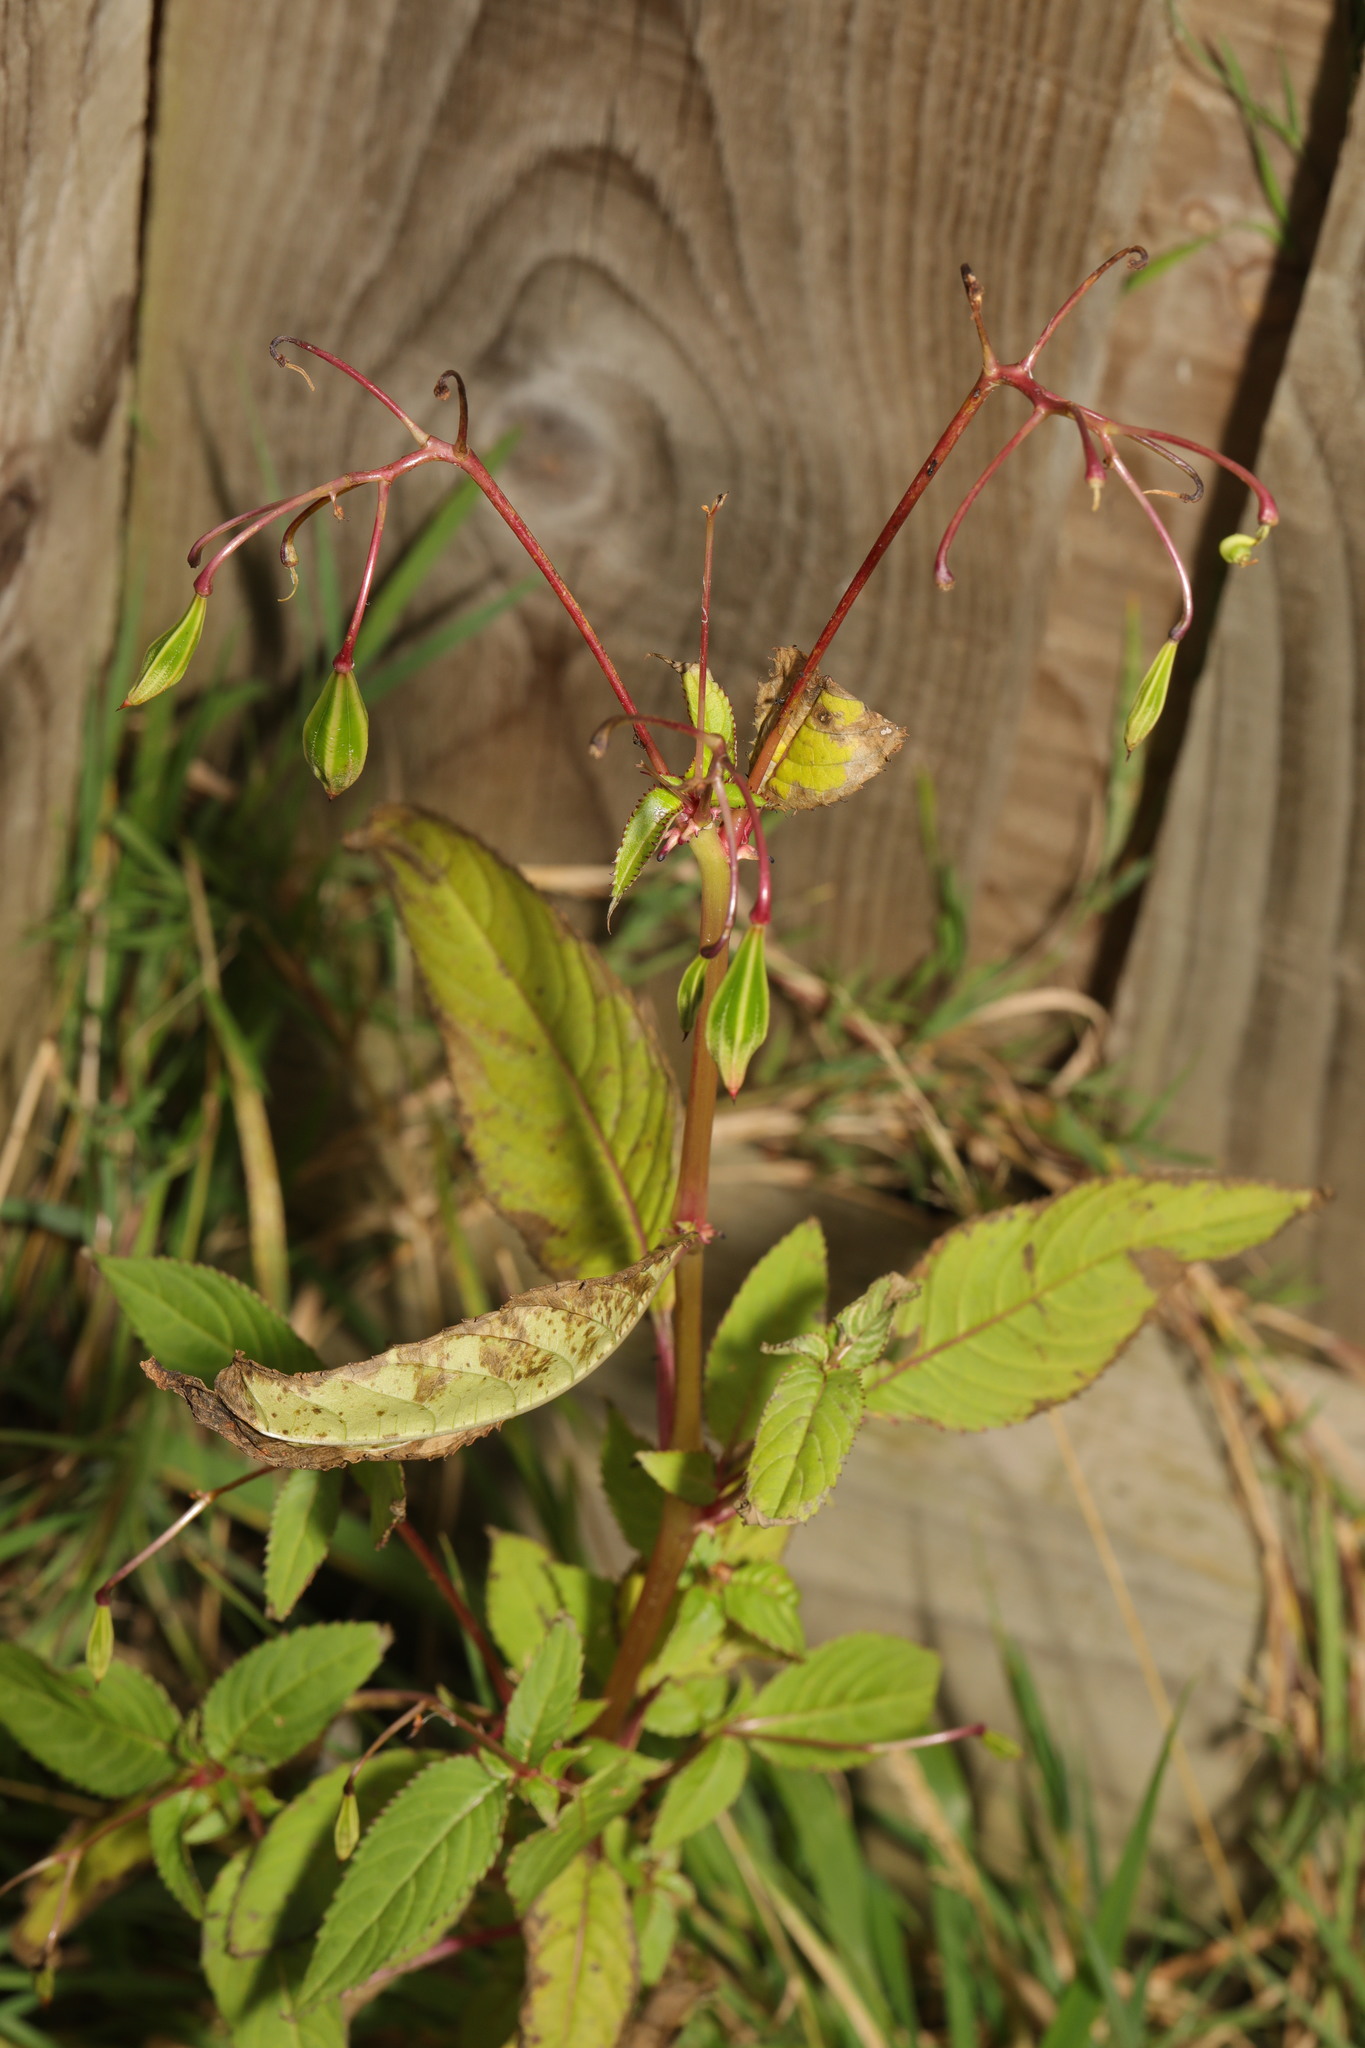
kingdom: Plantae
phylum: Tracheophyta
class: Magnoliopsida
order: Ericales
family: Balsaminaceae
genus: Impatiens
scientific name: Impatiens glandulifera
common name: Himalayan balsam
